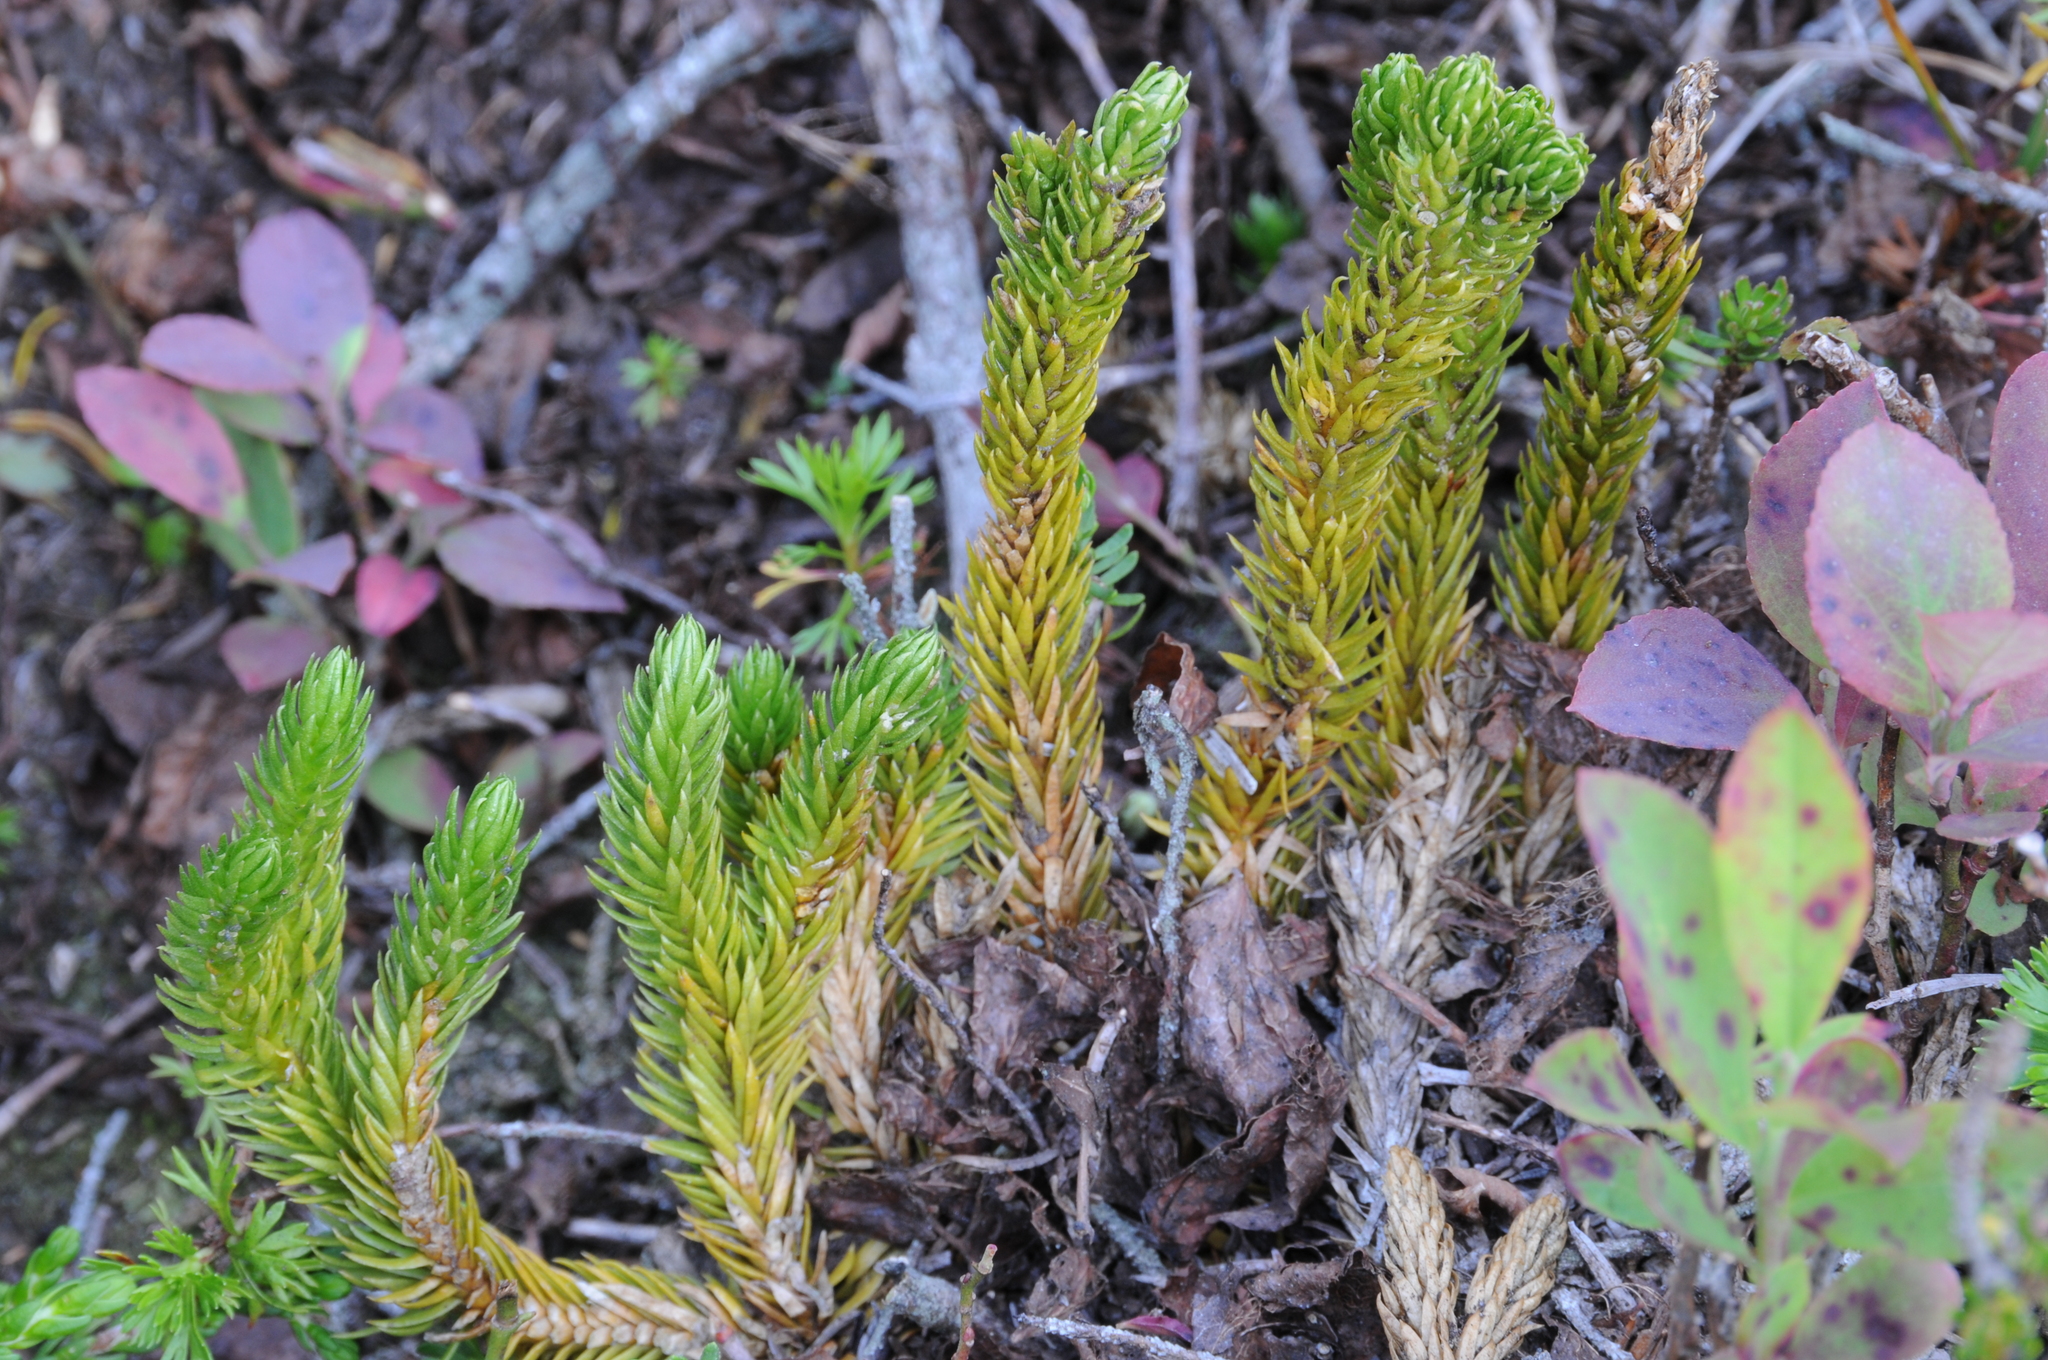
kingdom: Plantae
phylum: Tracheophyta
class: Lycopodiopsida
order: Lycopodiales
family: Lycopodiaceae
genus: Huperzia
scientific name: Huperzia continentalis
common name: Continental firmoss
